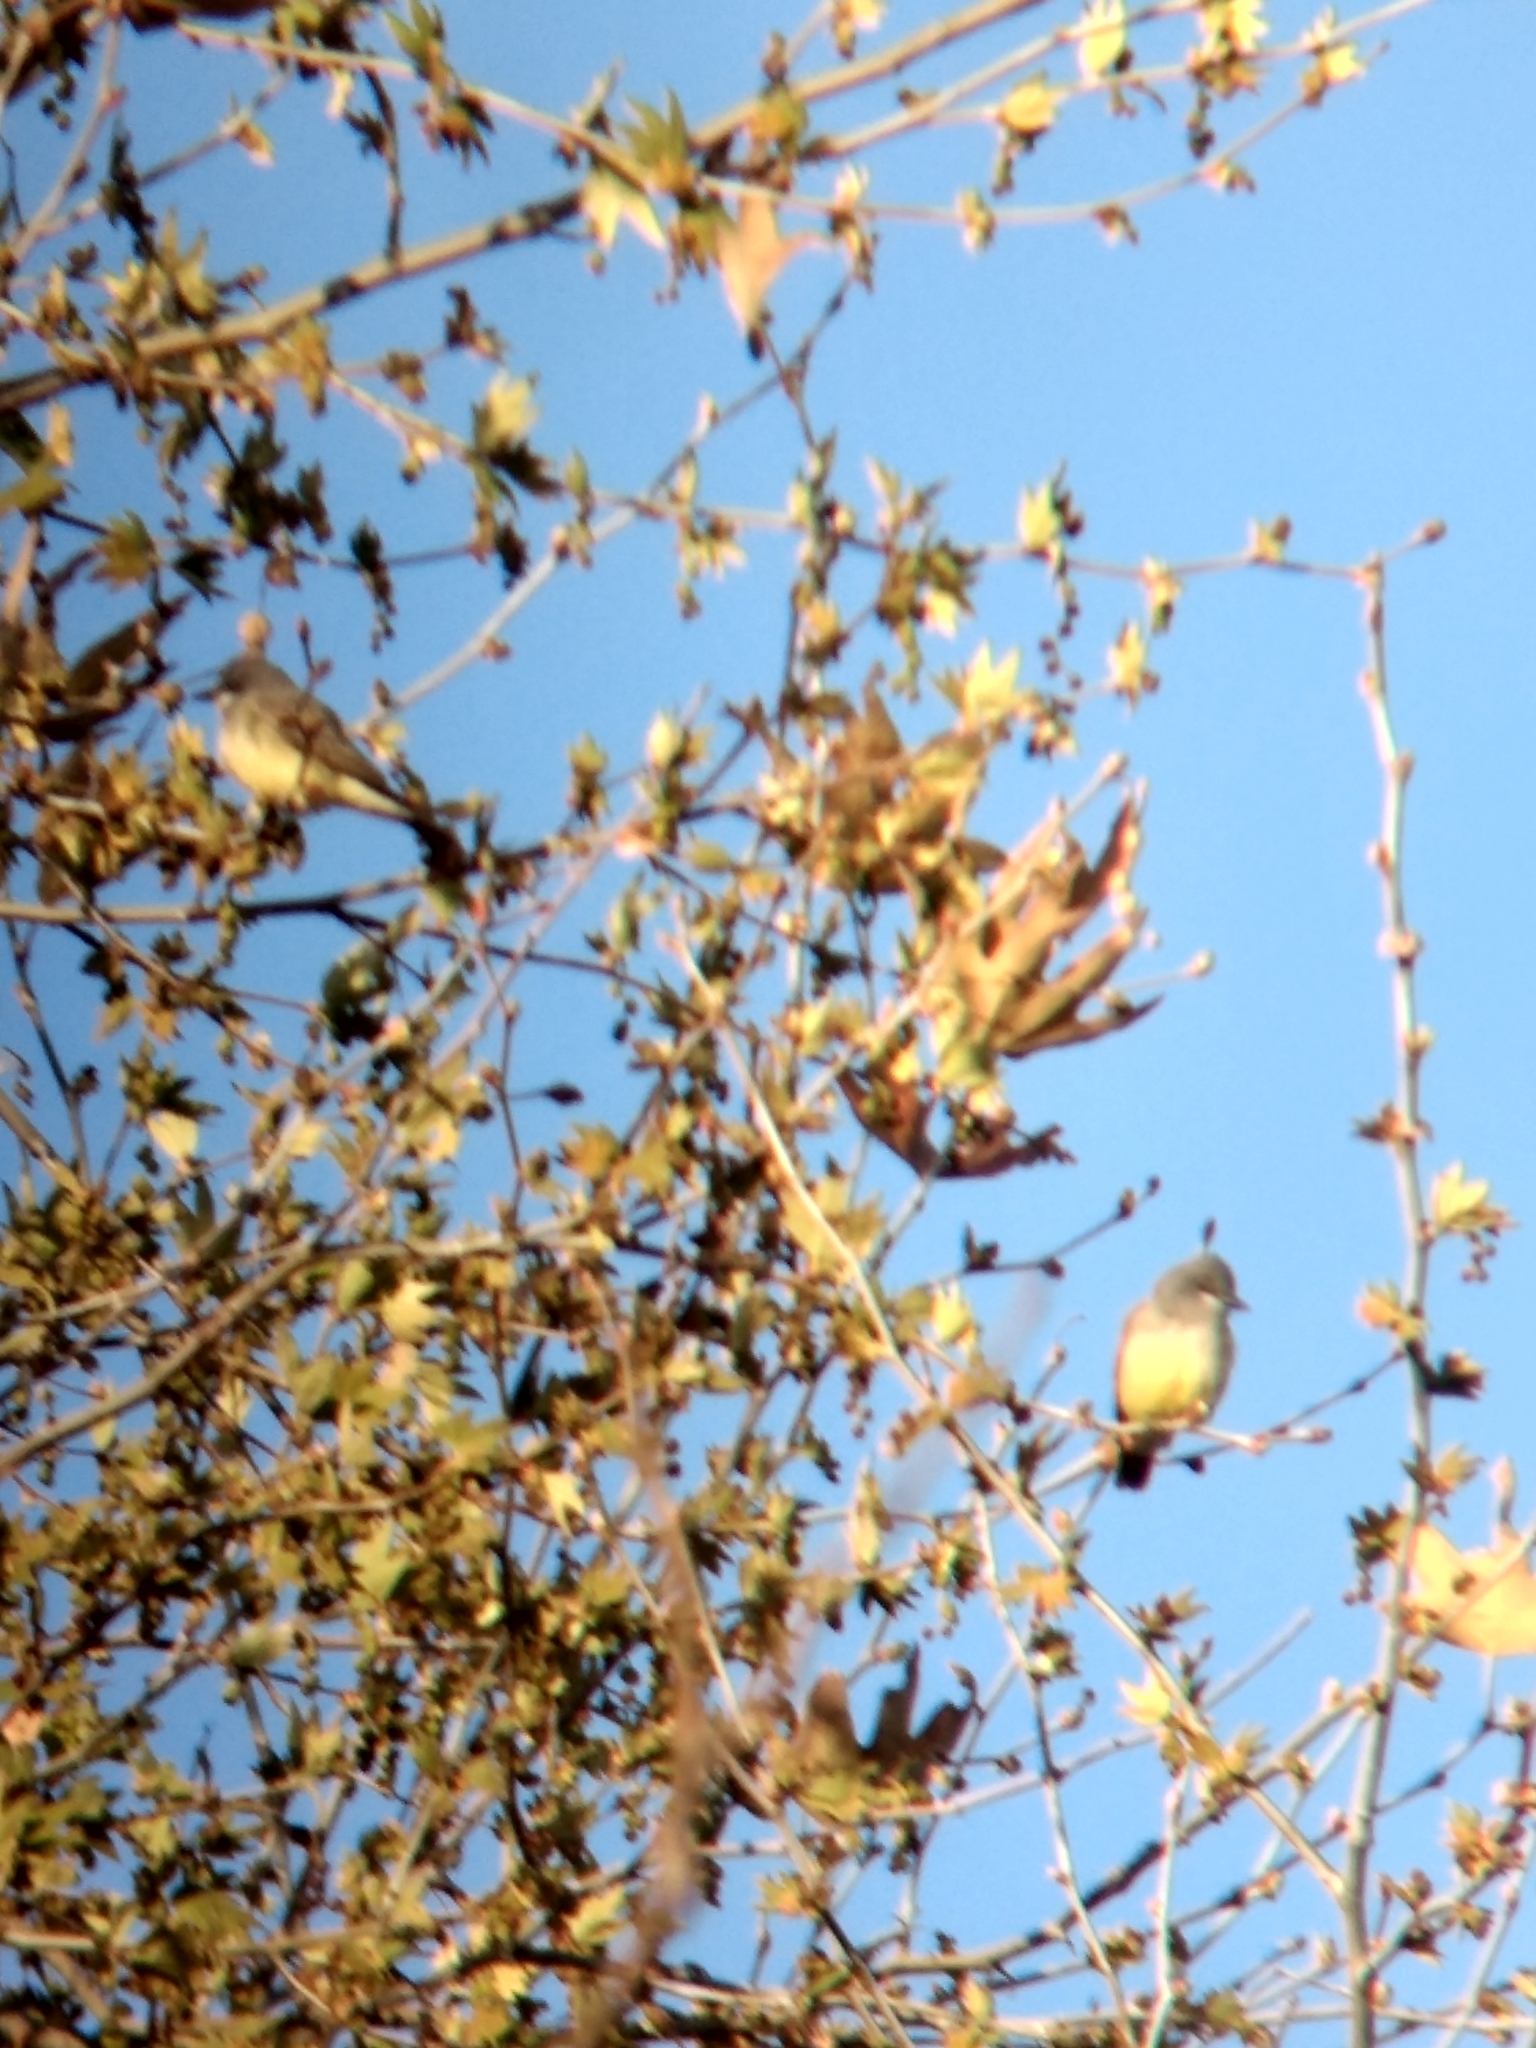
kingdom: Animalia
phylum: Chordata
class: Aves
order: Passeriformes
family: Tyrannidae
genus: Tyrannus
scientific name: Tyrannus vociferans
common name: Cassin's kingbird
